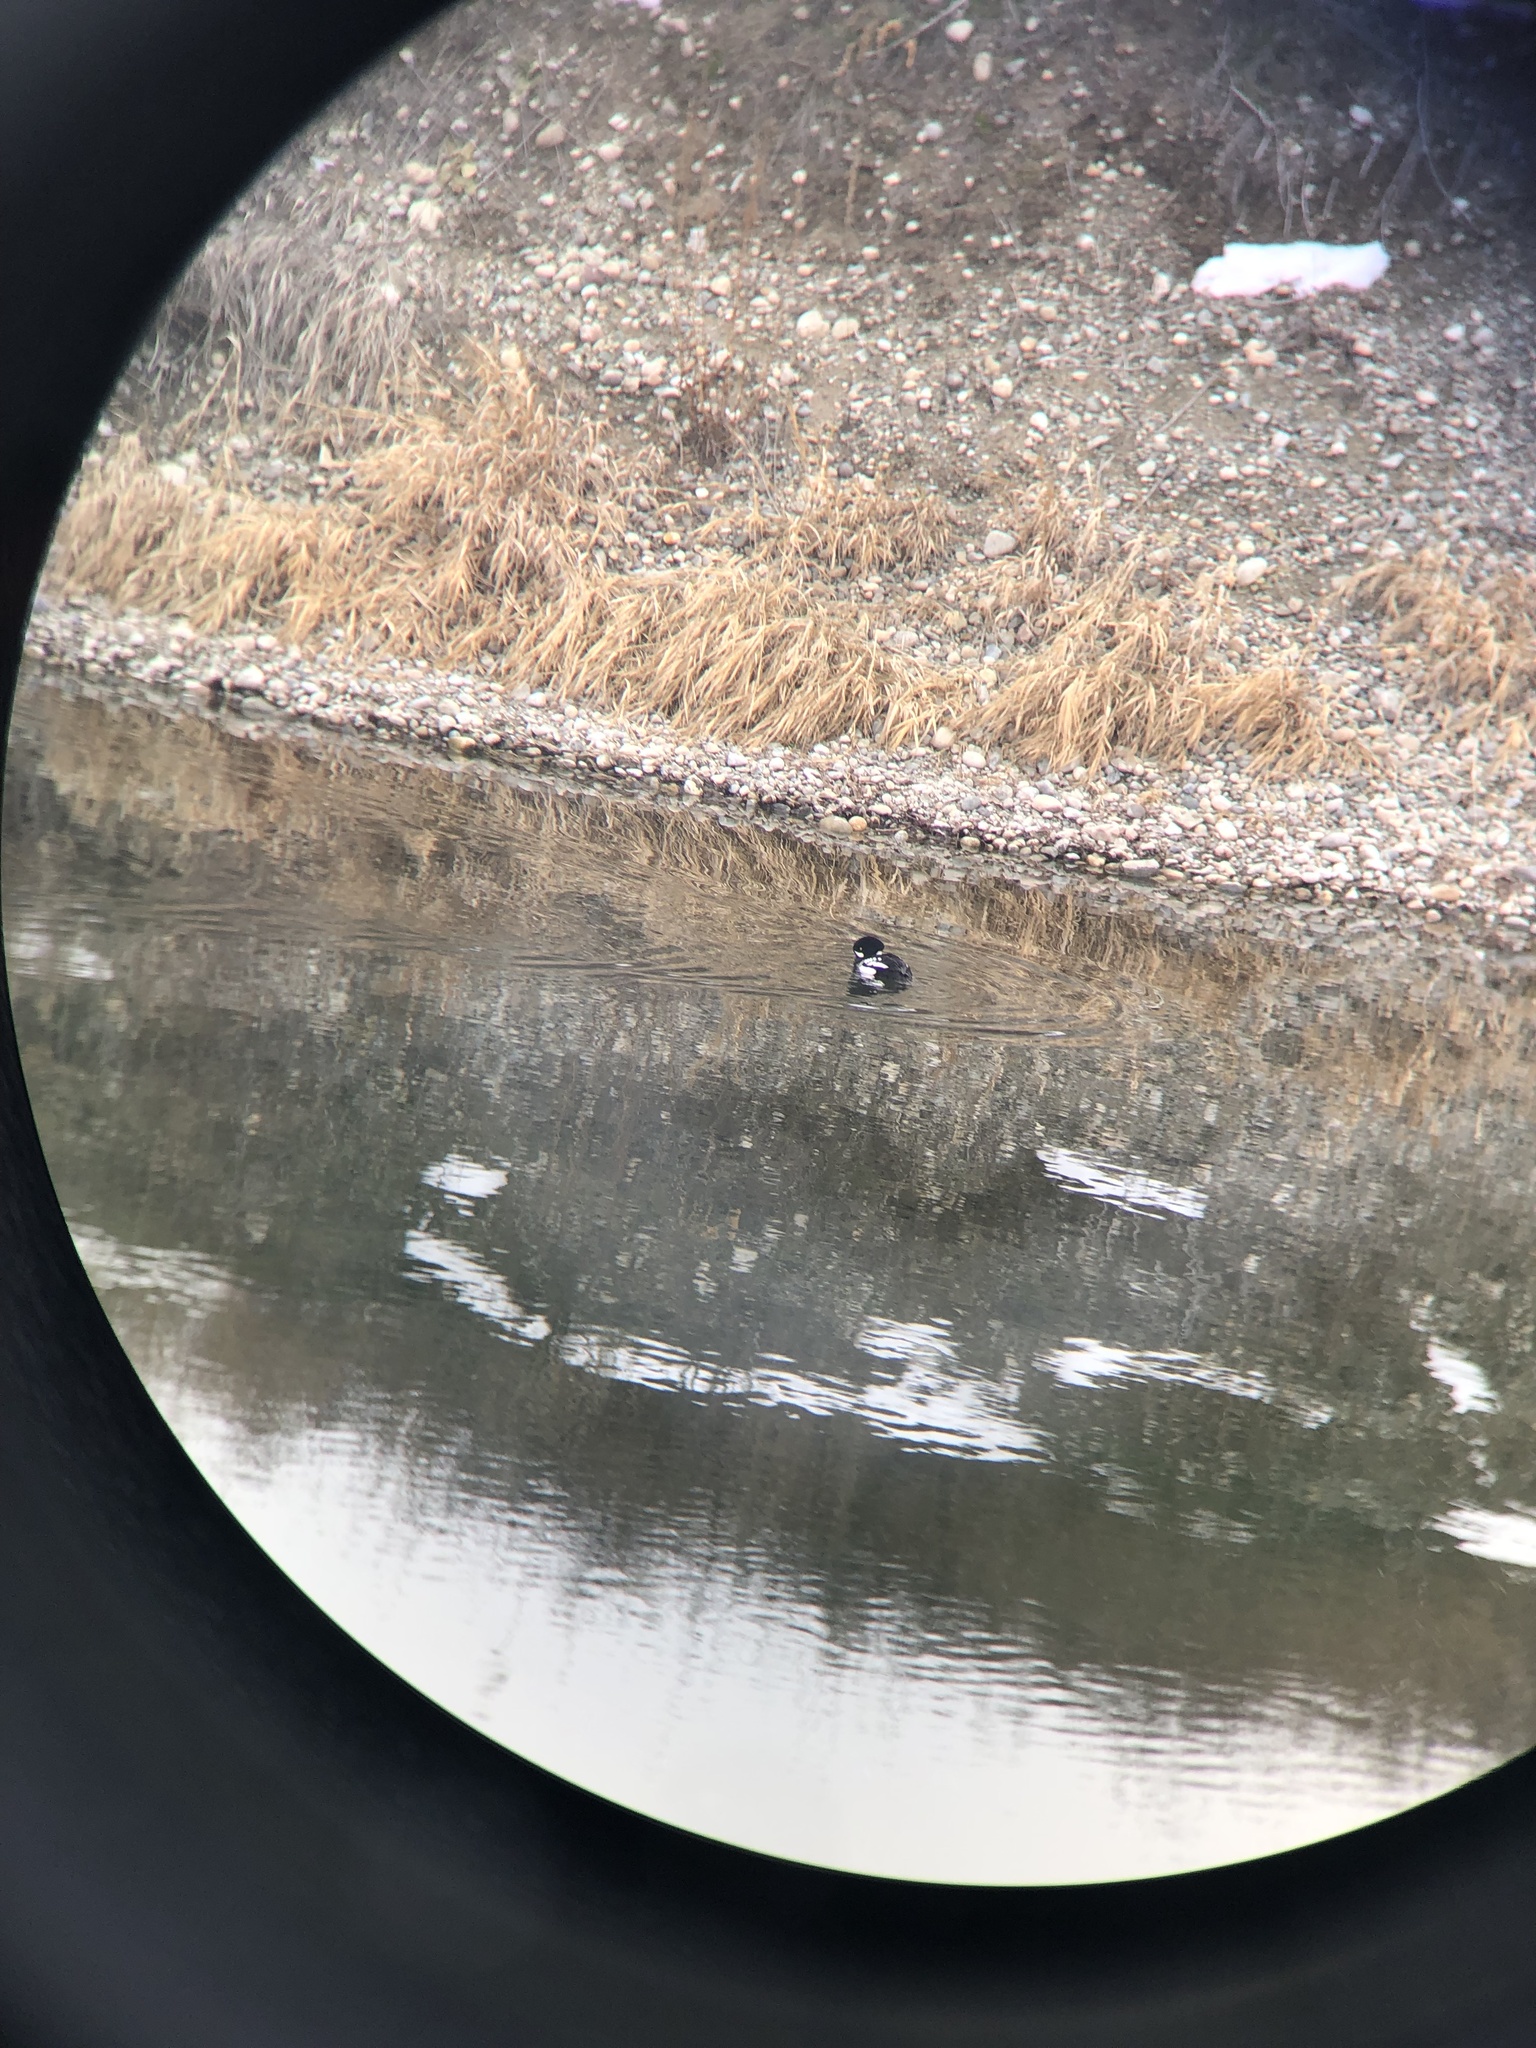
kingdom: Animalia
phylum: Chordata
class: Aves
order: Anseriformes
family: Anatidae
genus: Bucephala
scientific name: Bucephala islandica
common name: Barrow's goldeneye
